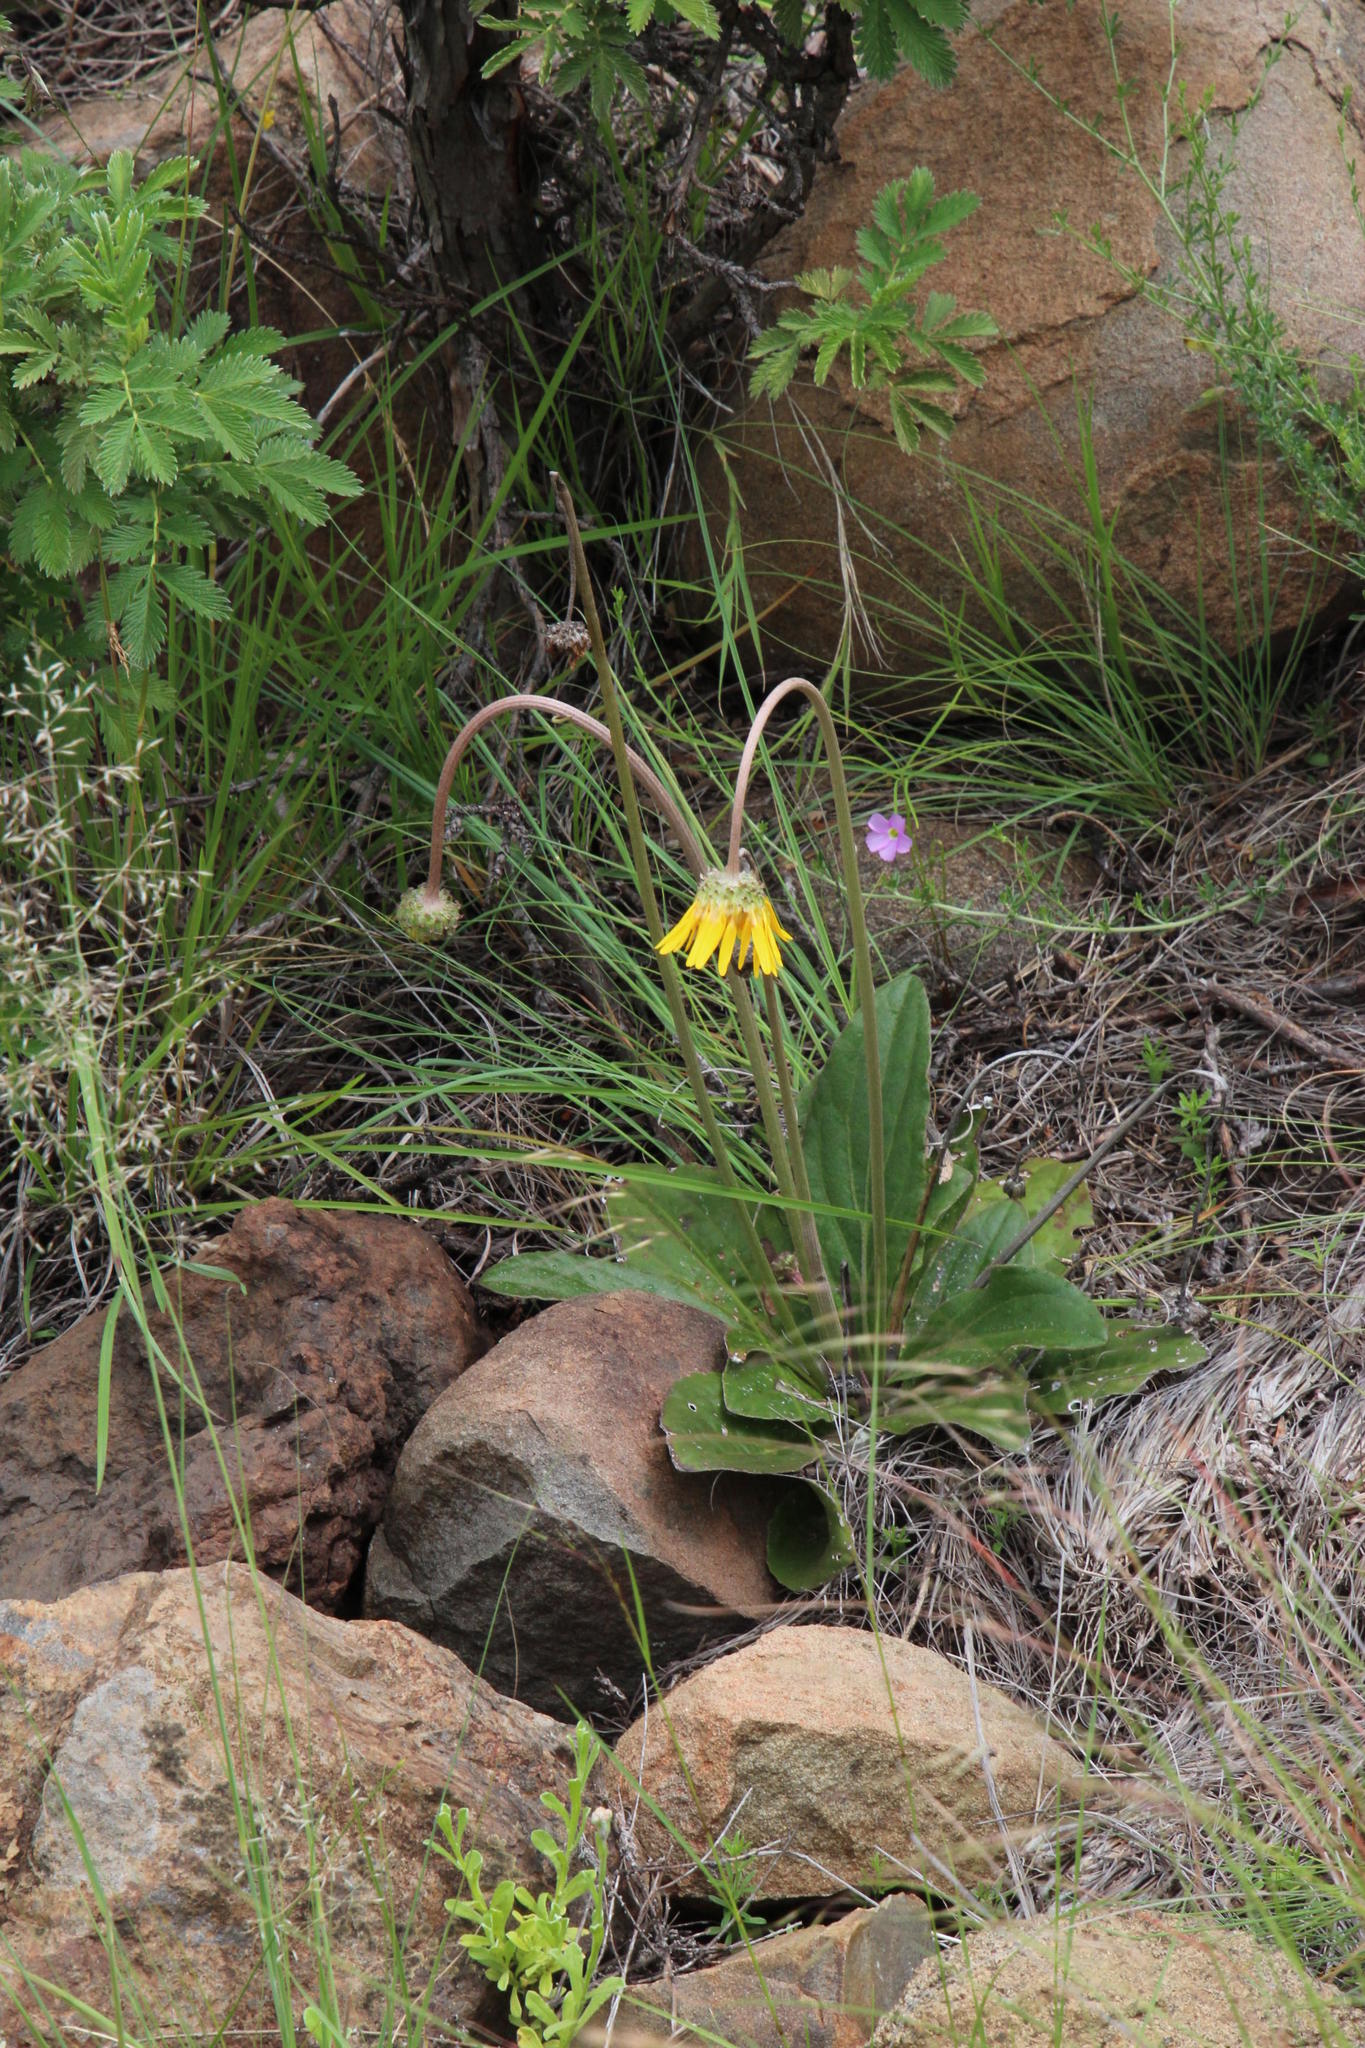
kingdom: Plantae
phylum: Tracheophyta
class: Magnoliopsida
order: Asterales
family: Asteraceae
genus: Haplocarpha
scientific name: Haplocarpha scaposa
